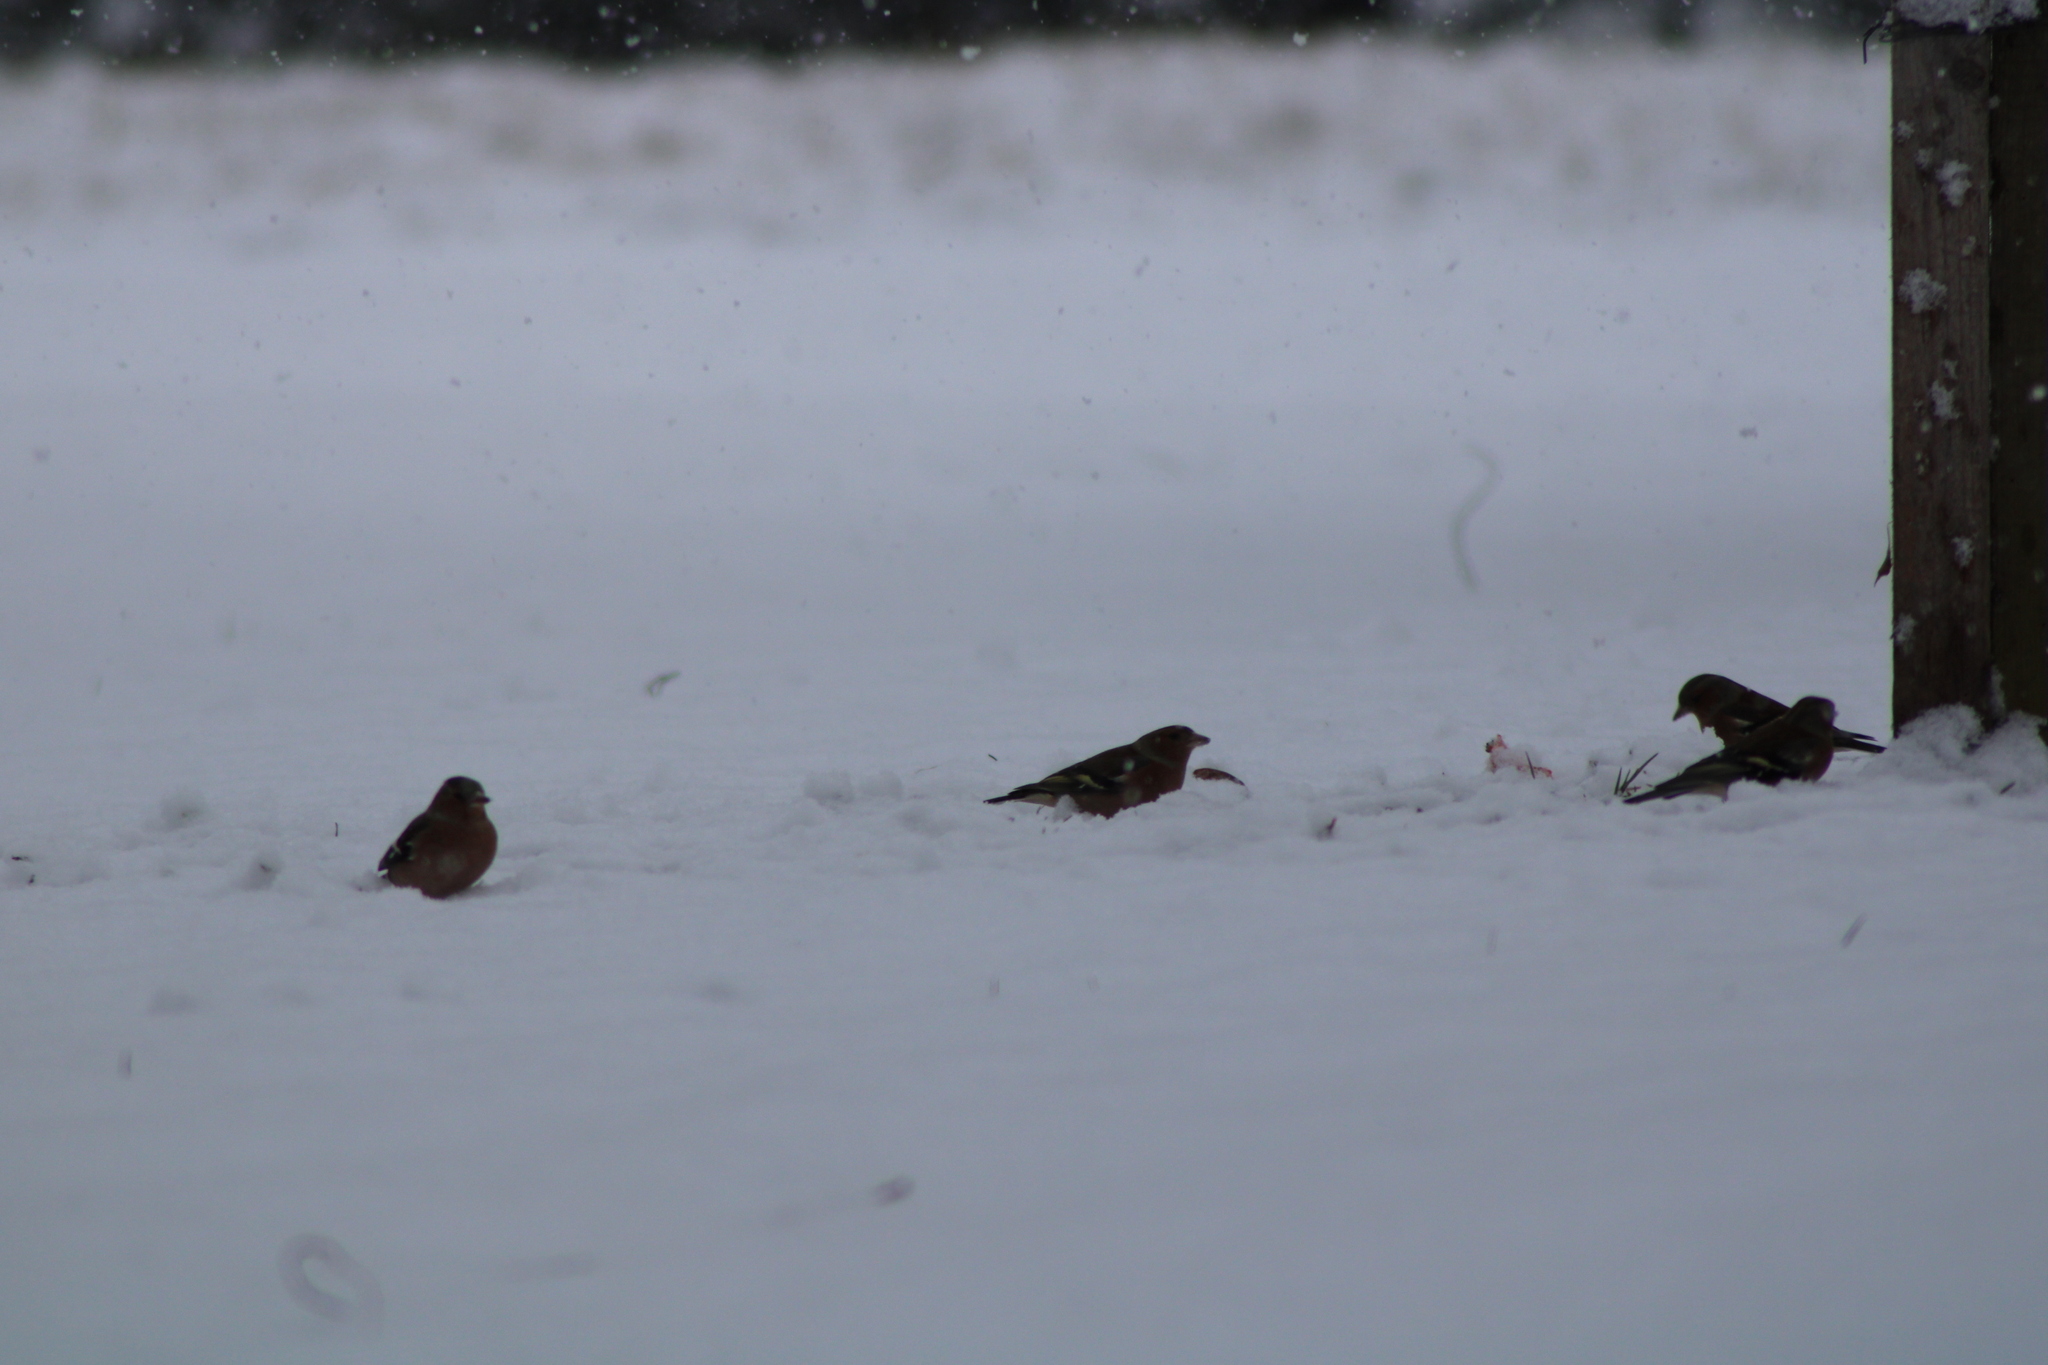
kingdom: Animalia
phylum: Chordata
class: Aves
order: Passeriformes
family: Fringillidae
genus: Fringilla
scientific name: Fringilla coelebs
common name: Common chaffinch
